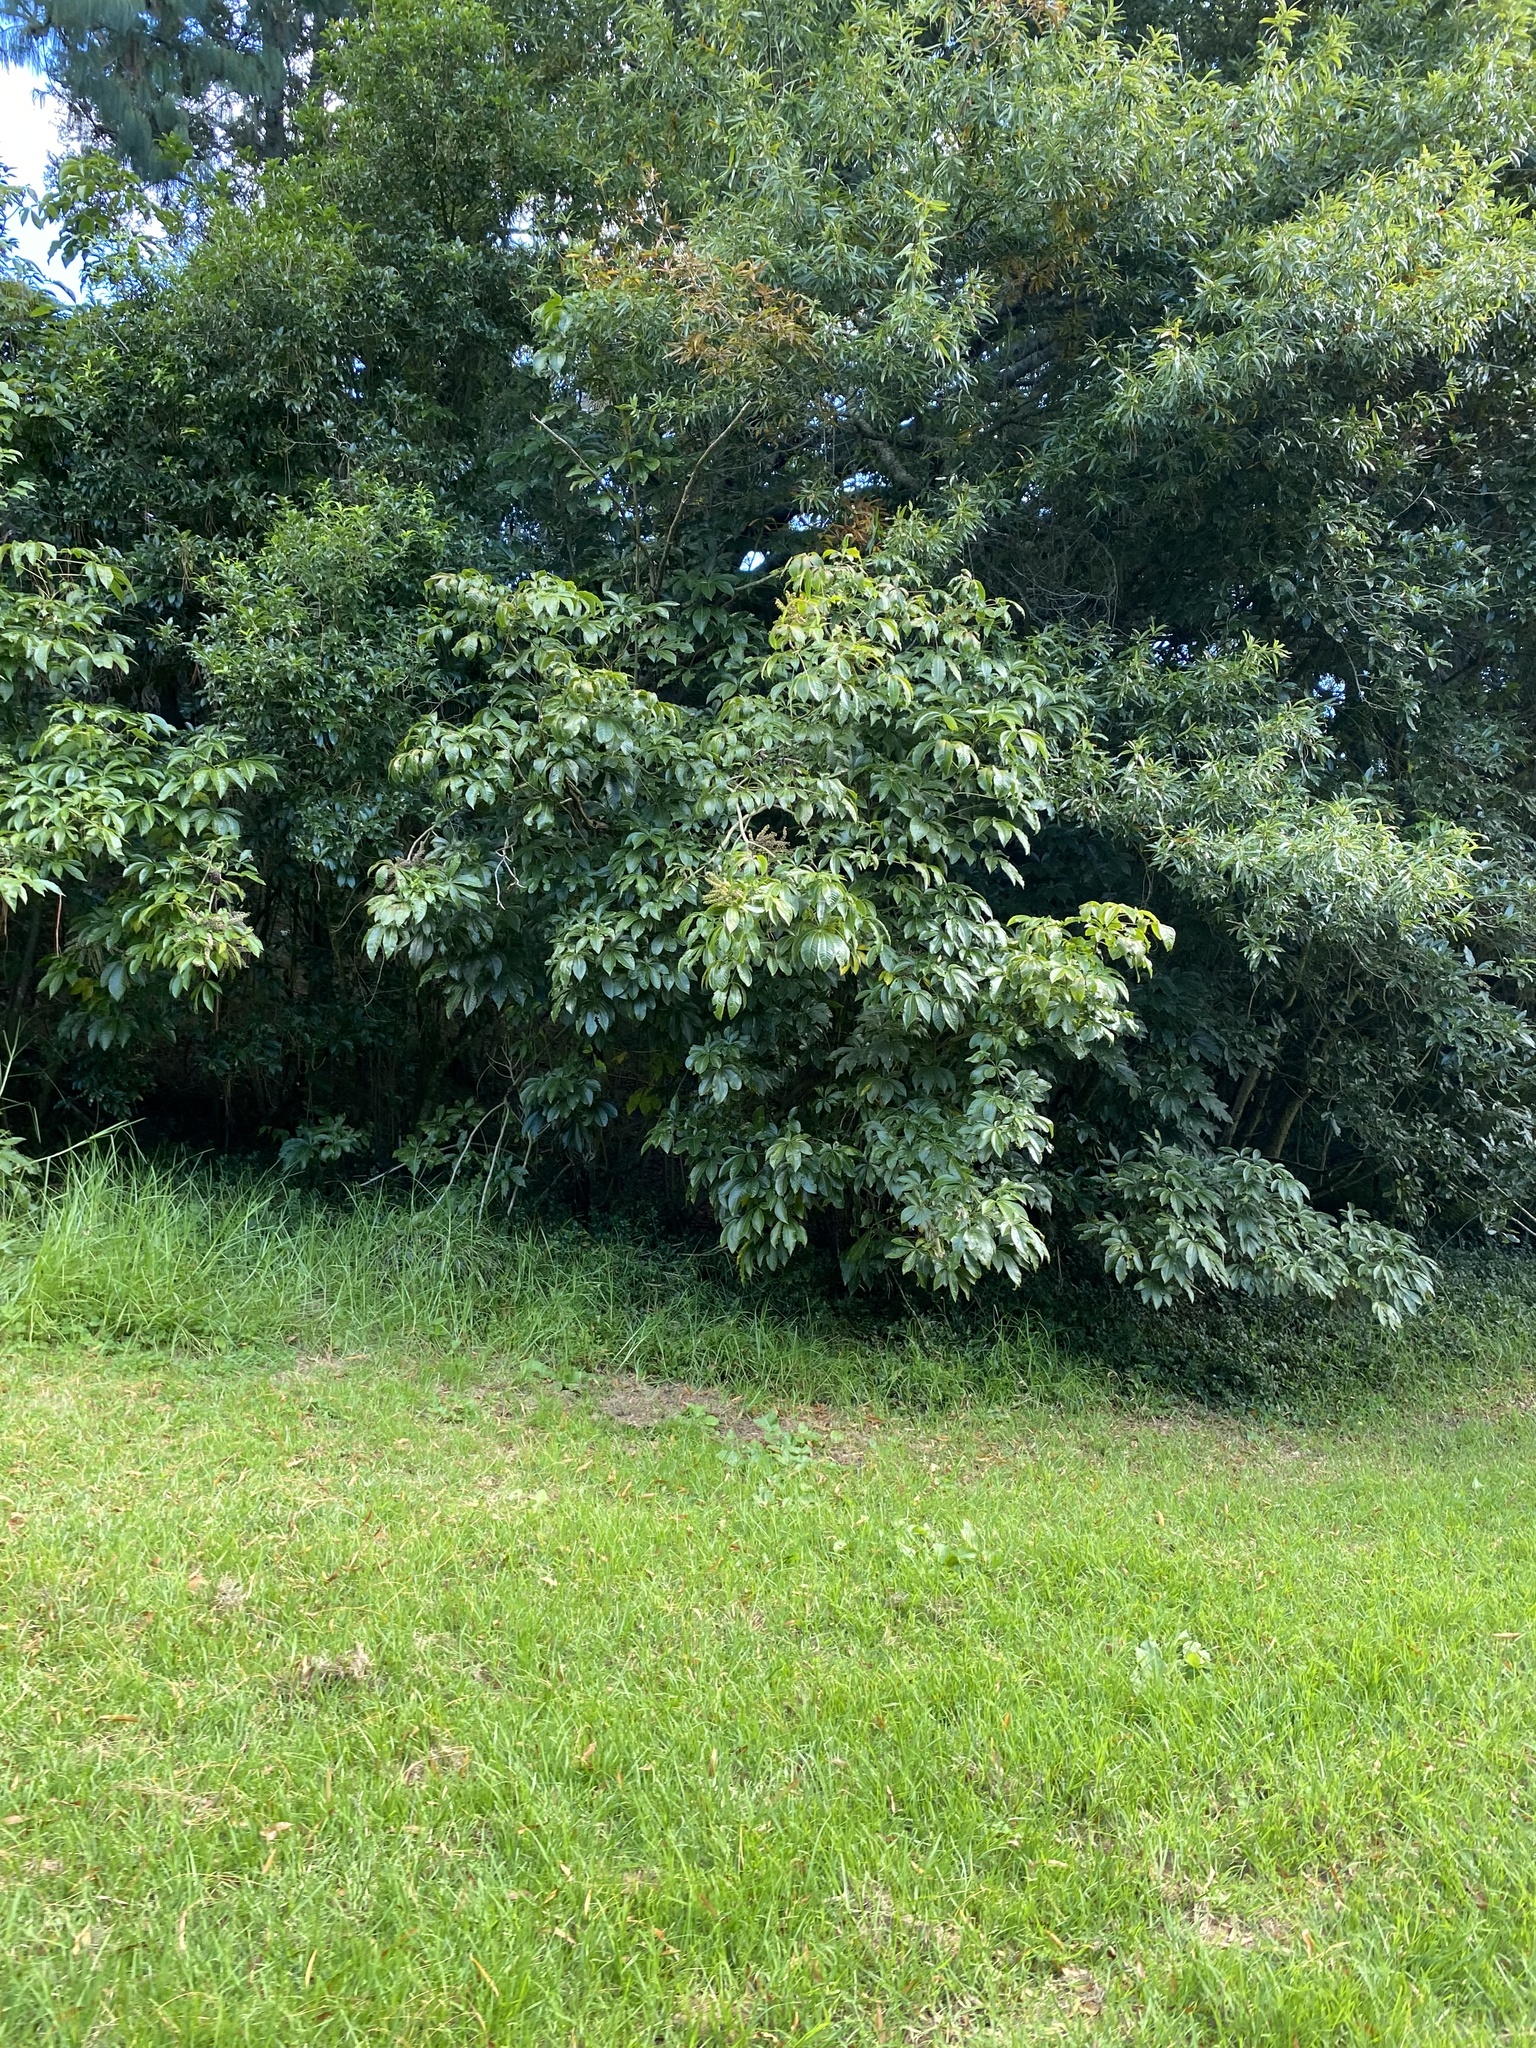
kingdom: Plantae
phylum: Tracheophyta
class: Magnoliopsida
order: Apiales
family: Araliaceae
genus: Schefflera
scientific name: Schefflera digitata
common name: Pate
